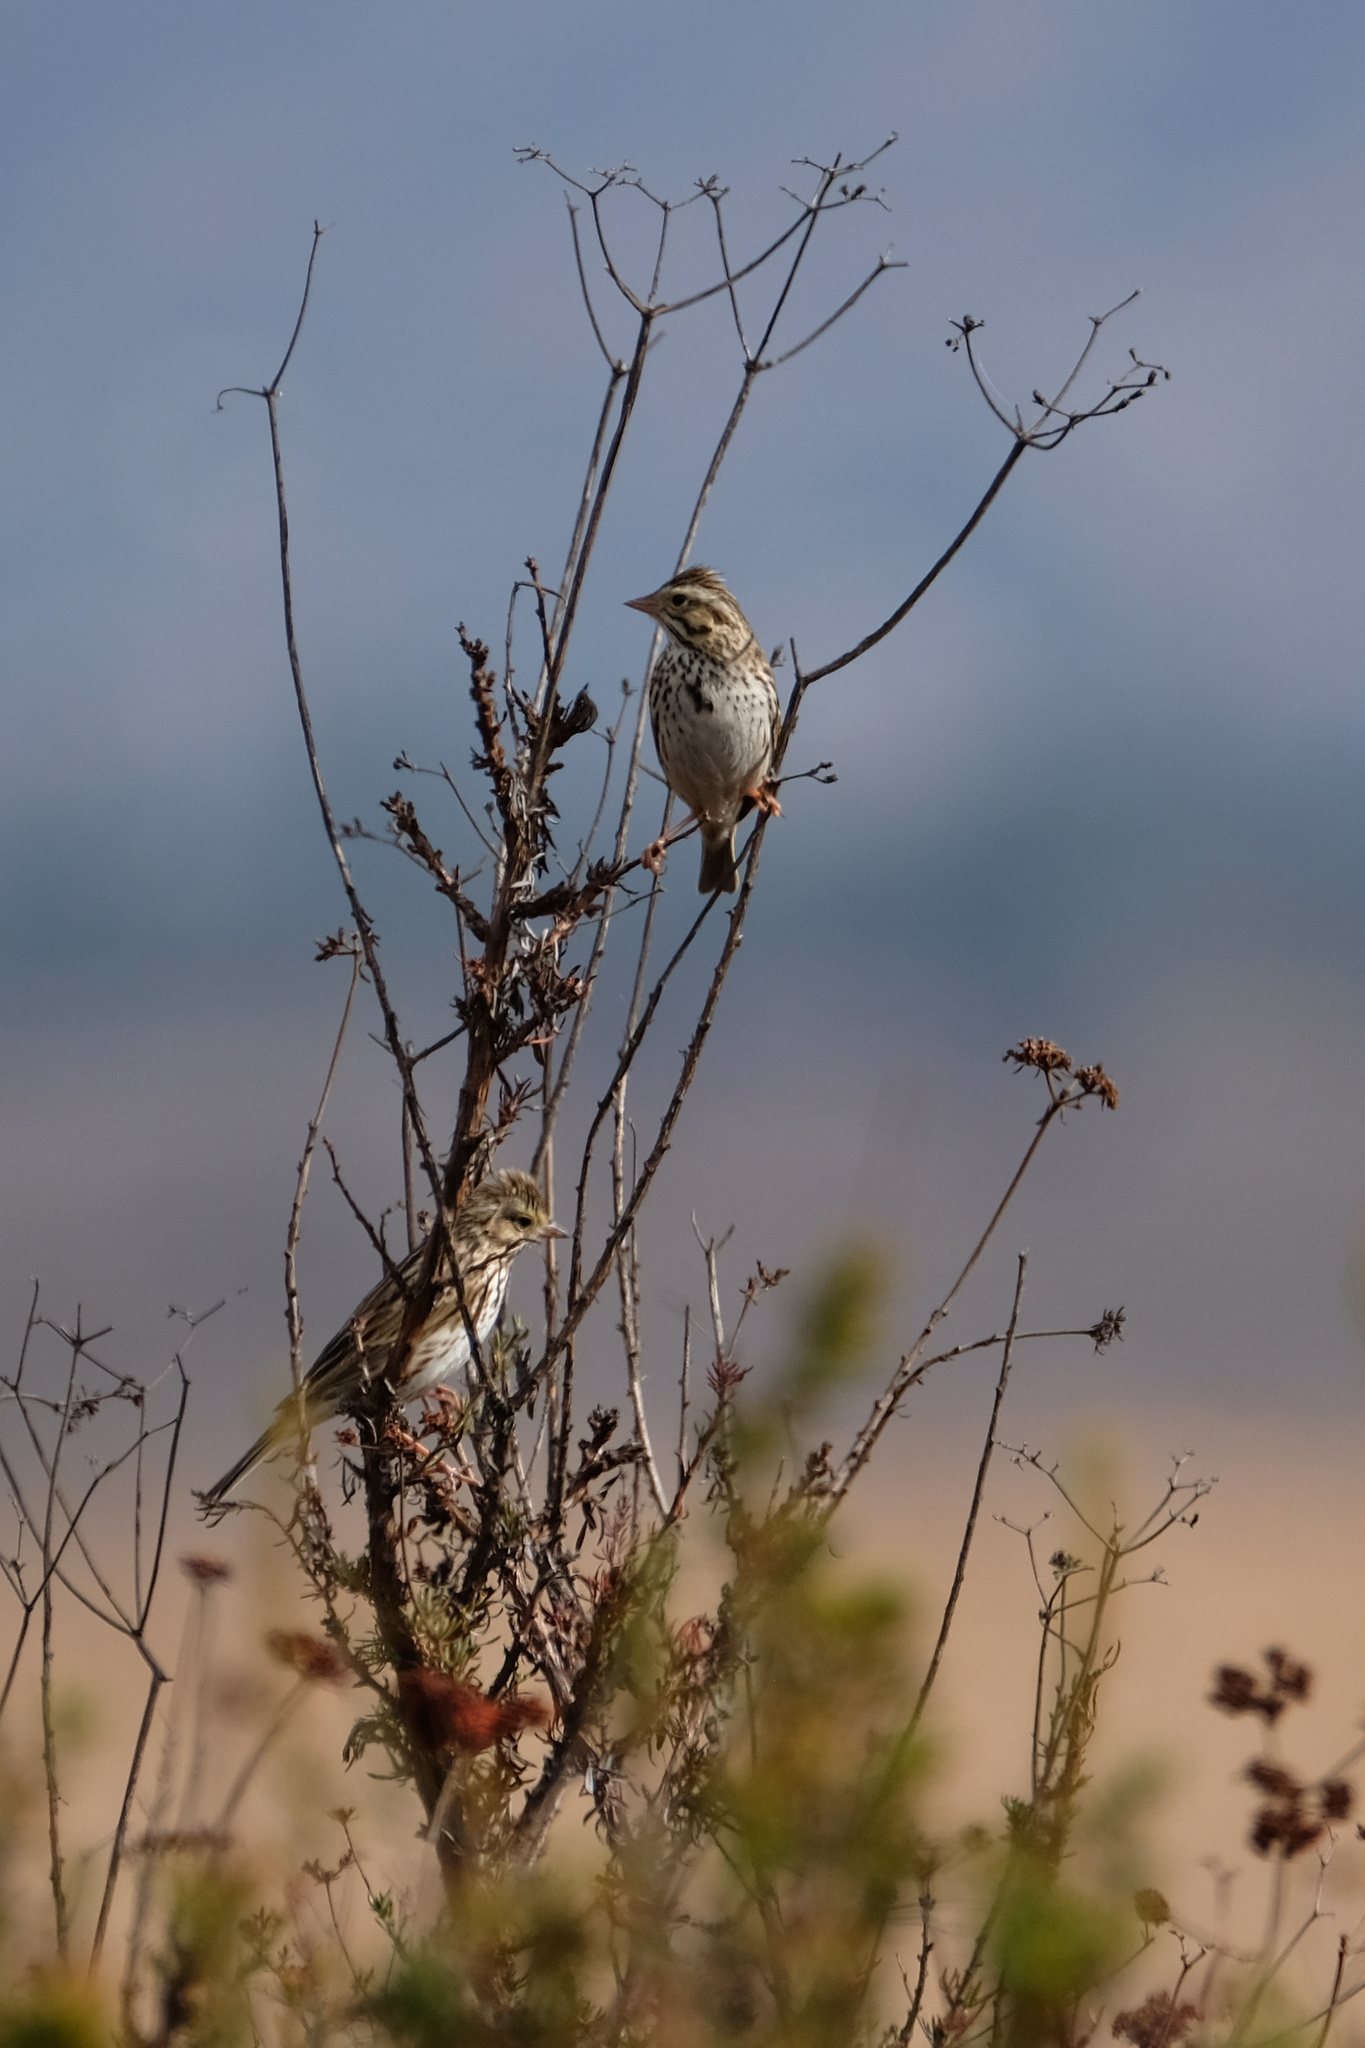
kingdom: Animalia
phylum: Chordata
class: Aves
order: Passeriformes
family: Passerellidae
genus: Passerculus
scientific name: Passerculus sandwichensis
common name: Savannah sparrow
